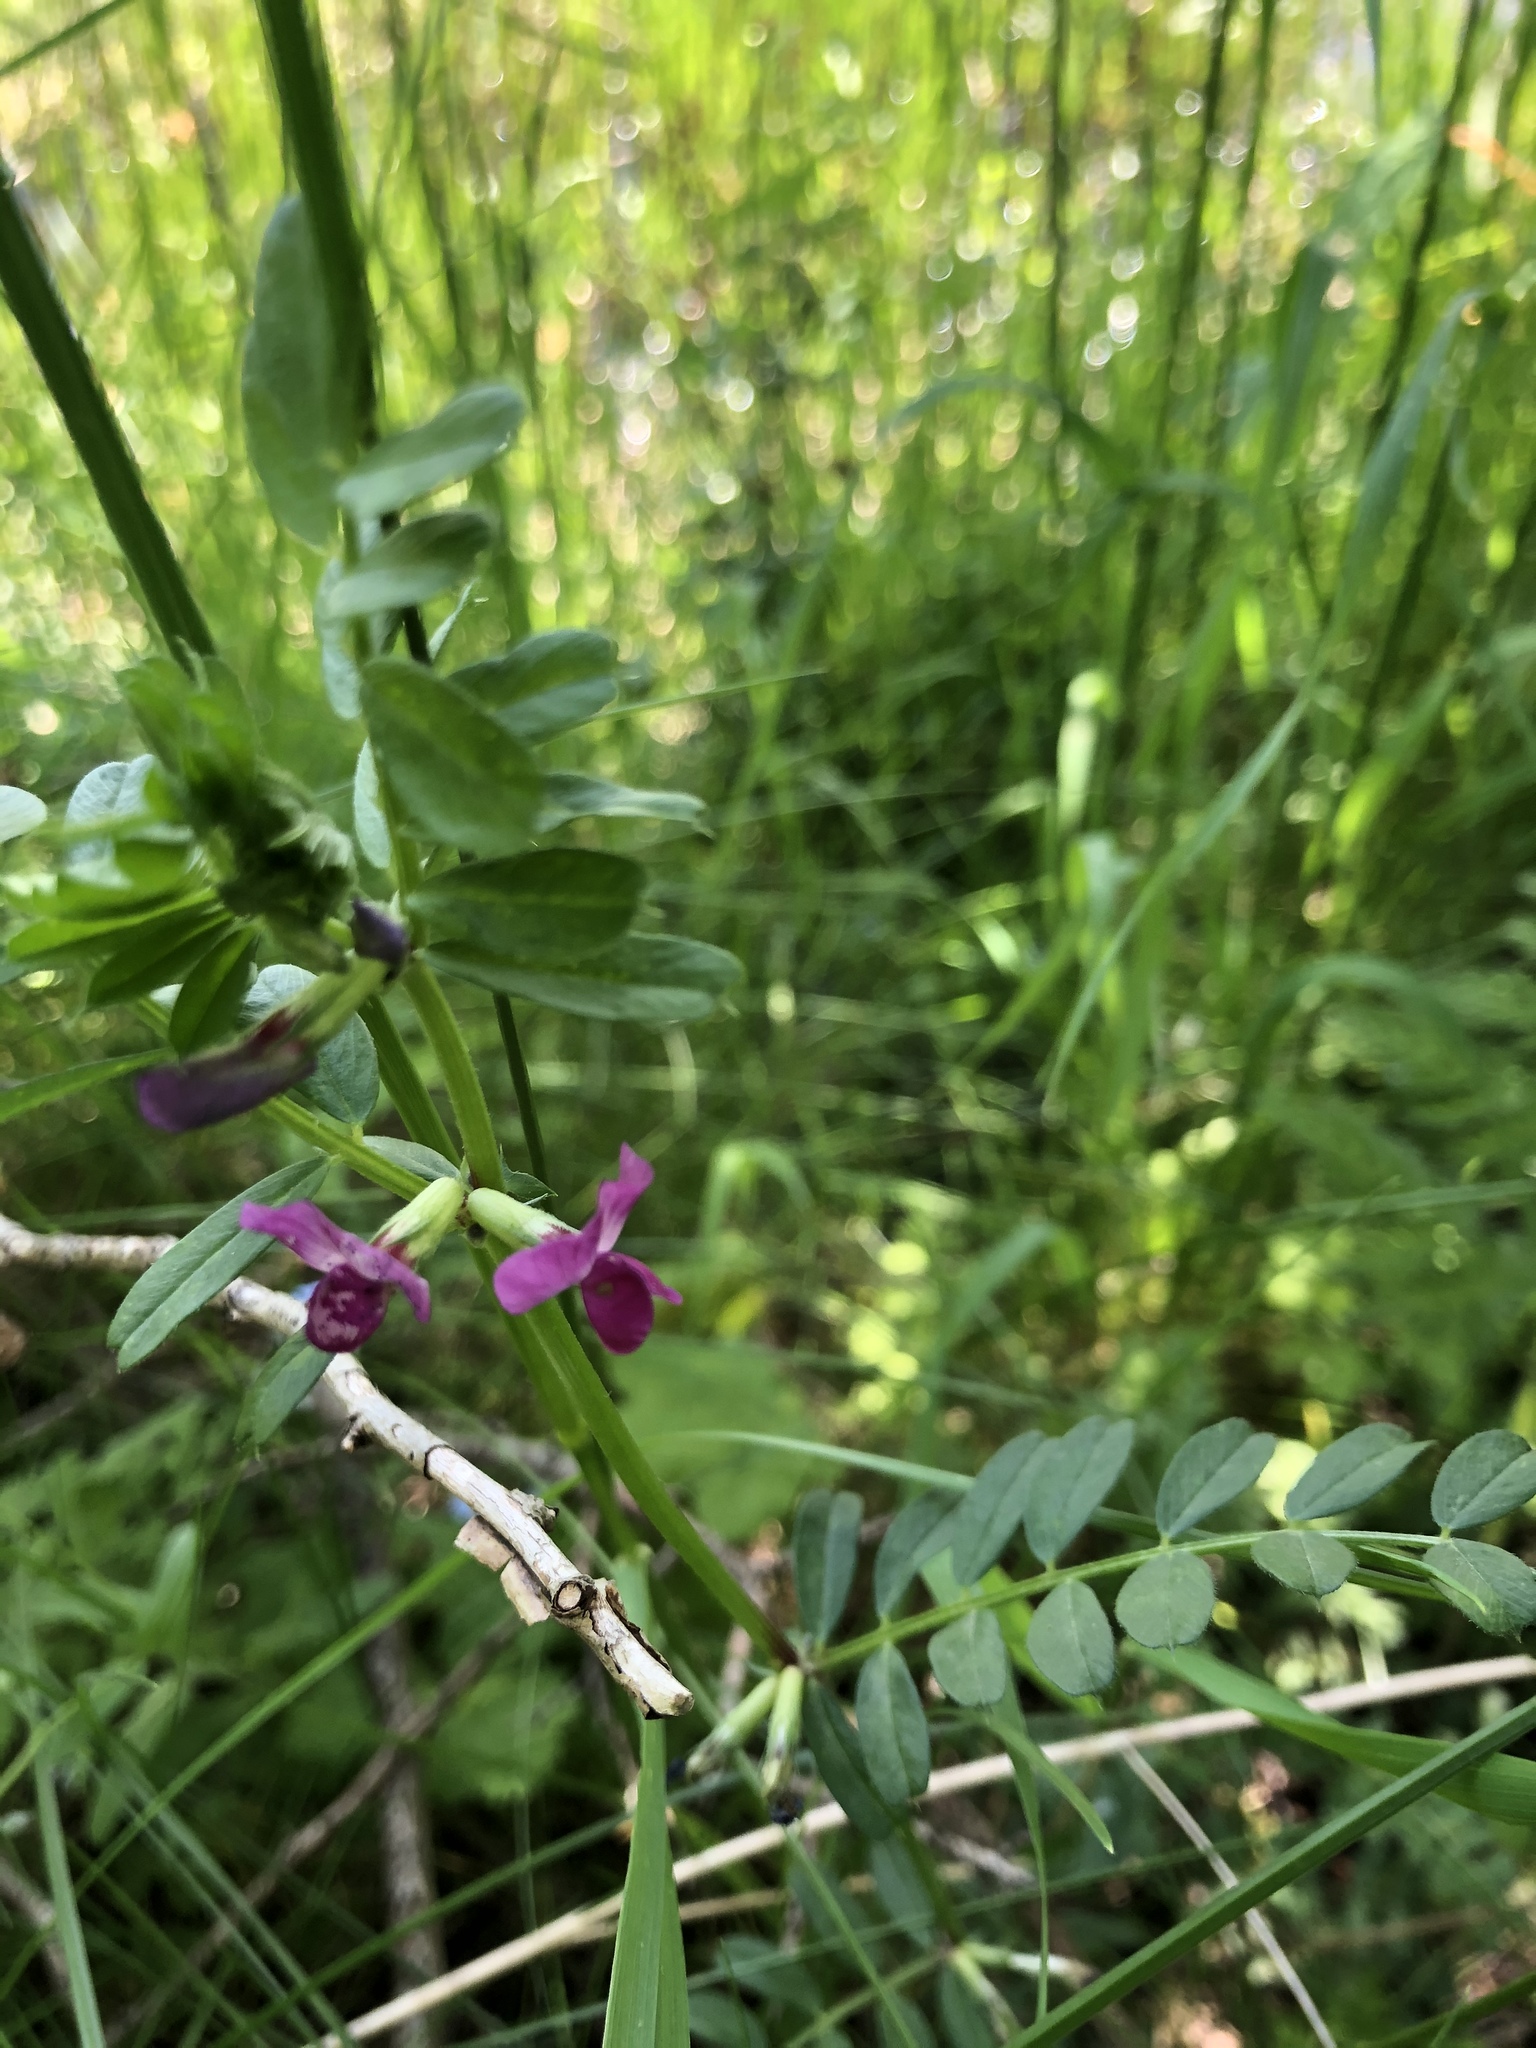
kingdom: Plantae
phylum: Tracheophyta
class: Magnoliopsida
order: Fabales
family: Fabaceae
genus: Vicia
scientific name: Vicia sativa
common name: Garden vetch
